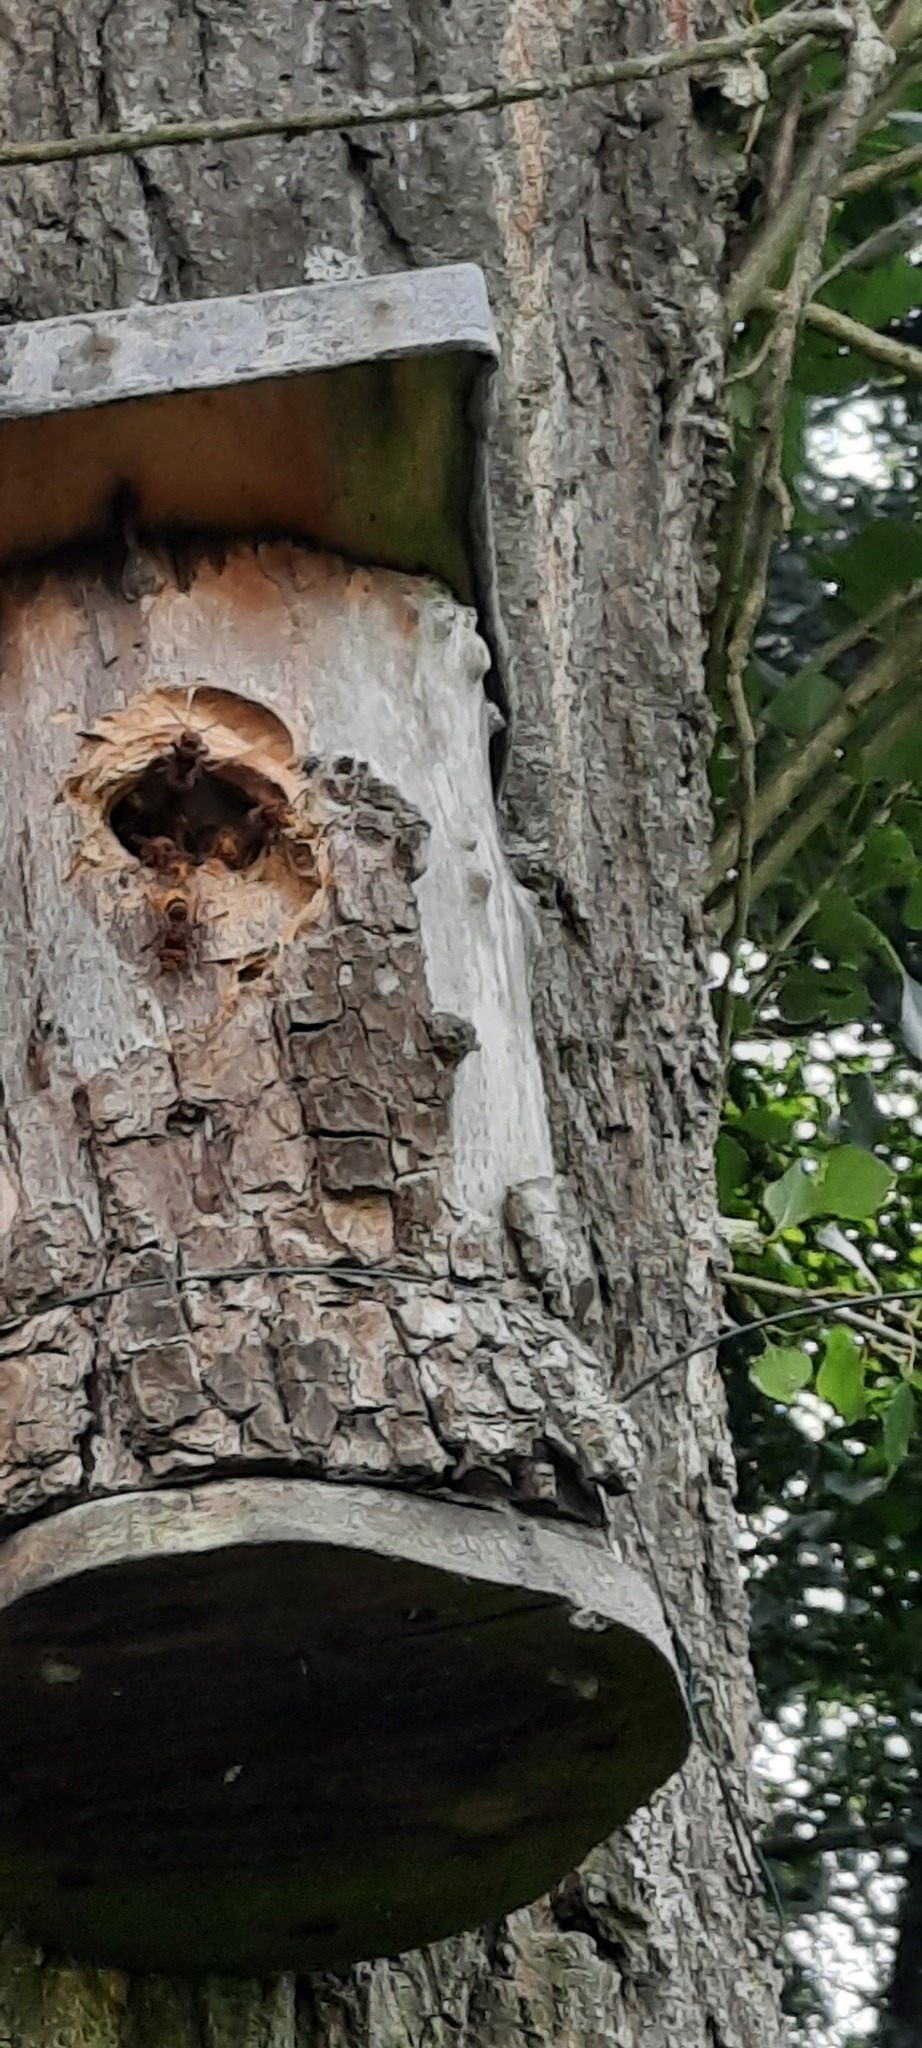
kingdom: Animalia
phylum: Arthropoda
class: Insecta
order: Hymenoptera
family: Vespidae
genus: Vespa
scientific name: Vespa crabro
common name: Hornet
